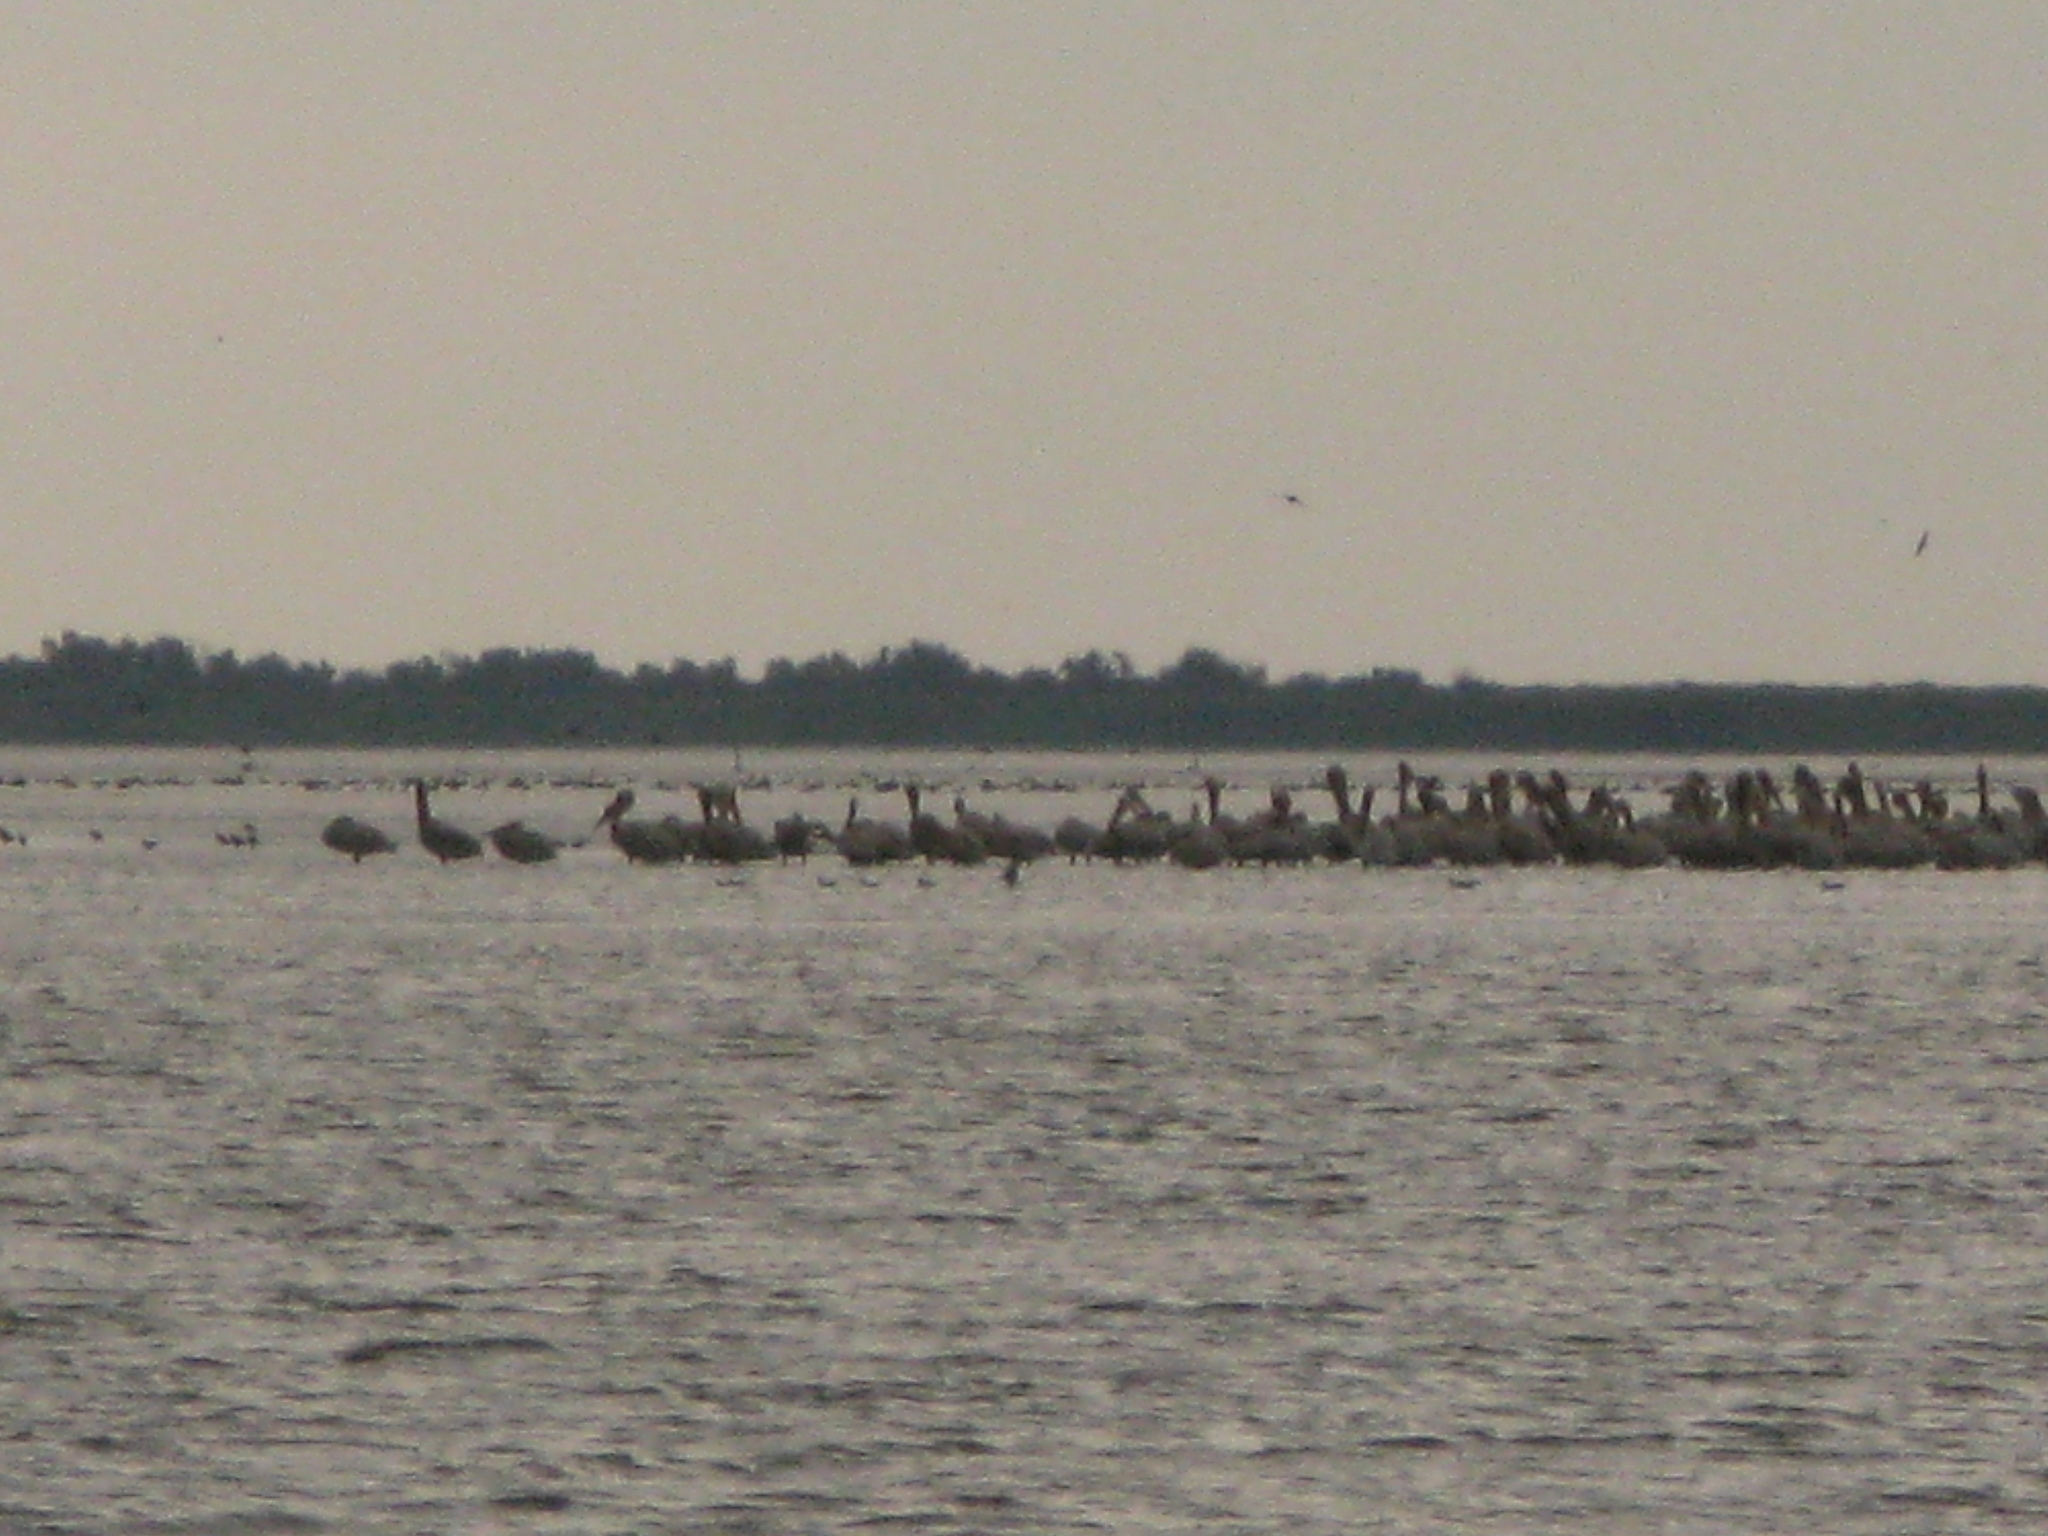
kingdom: Animalia
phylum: Chordata
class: Aves
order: Pelecaniformes
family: Pelecanidae
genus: Pelecanus
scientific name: Pelecanus onocrotalus
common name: Great white pelican
